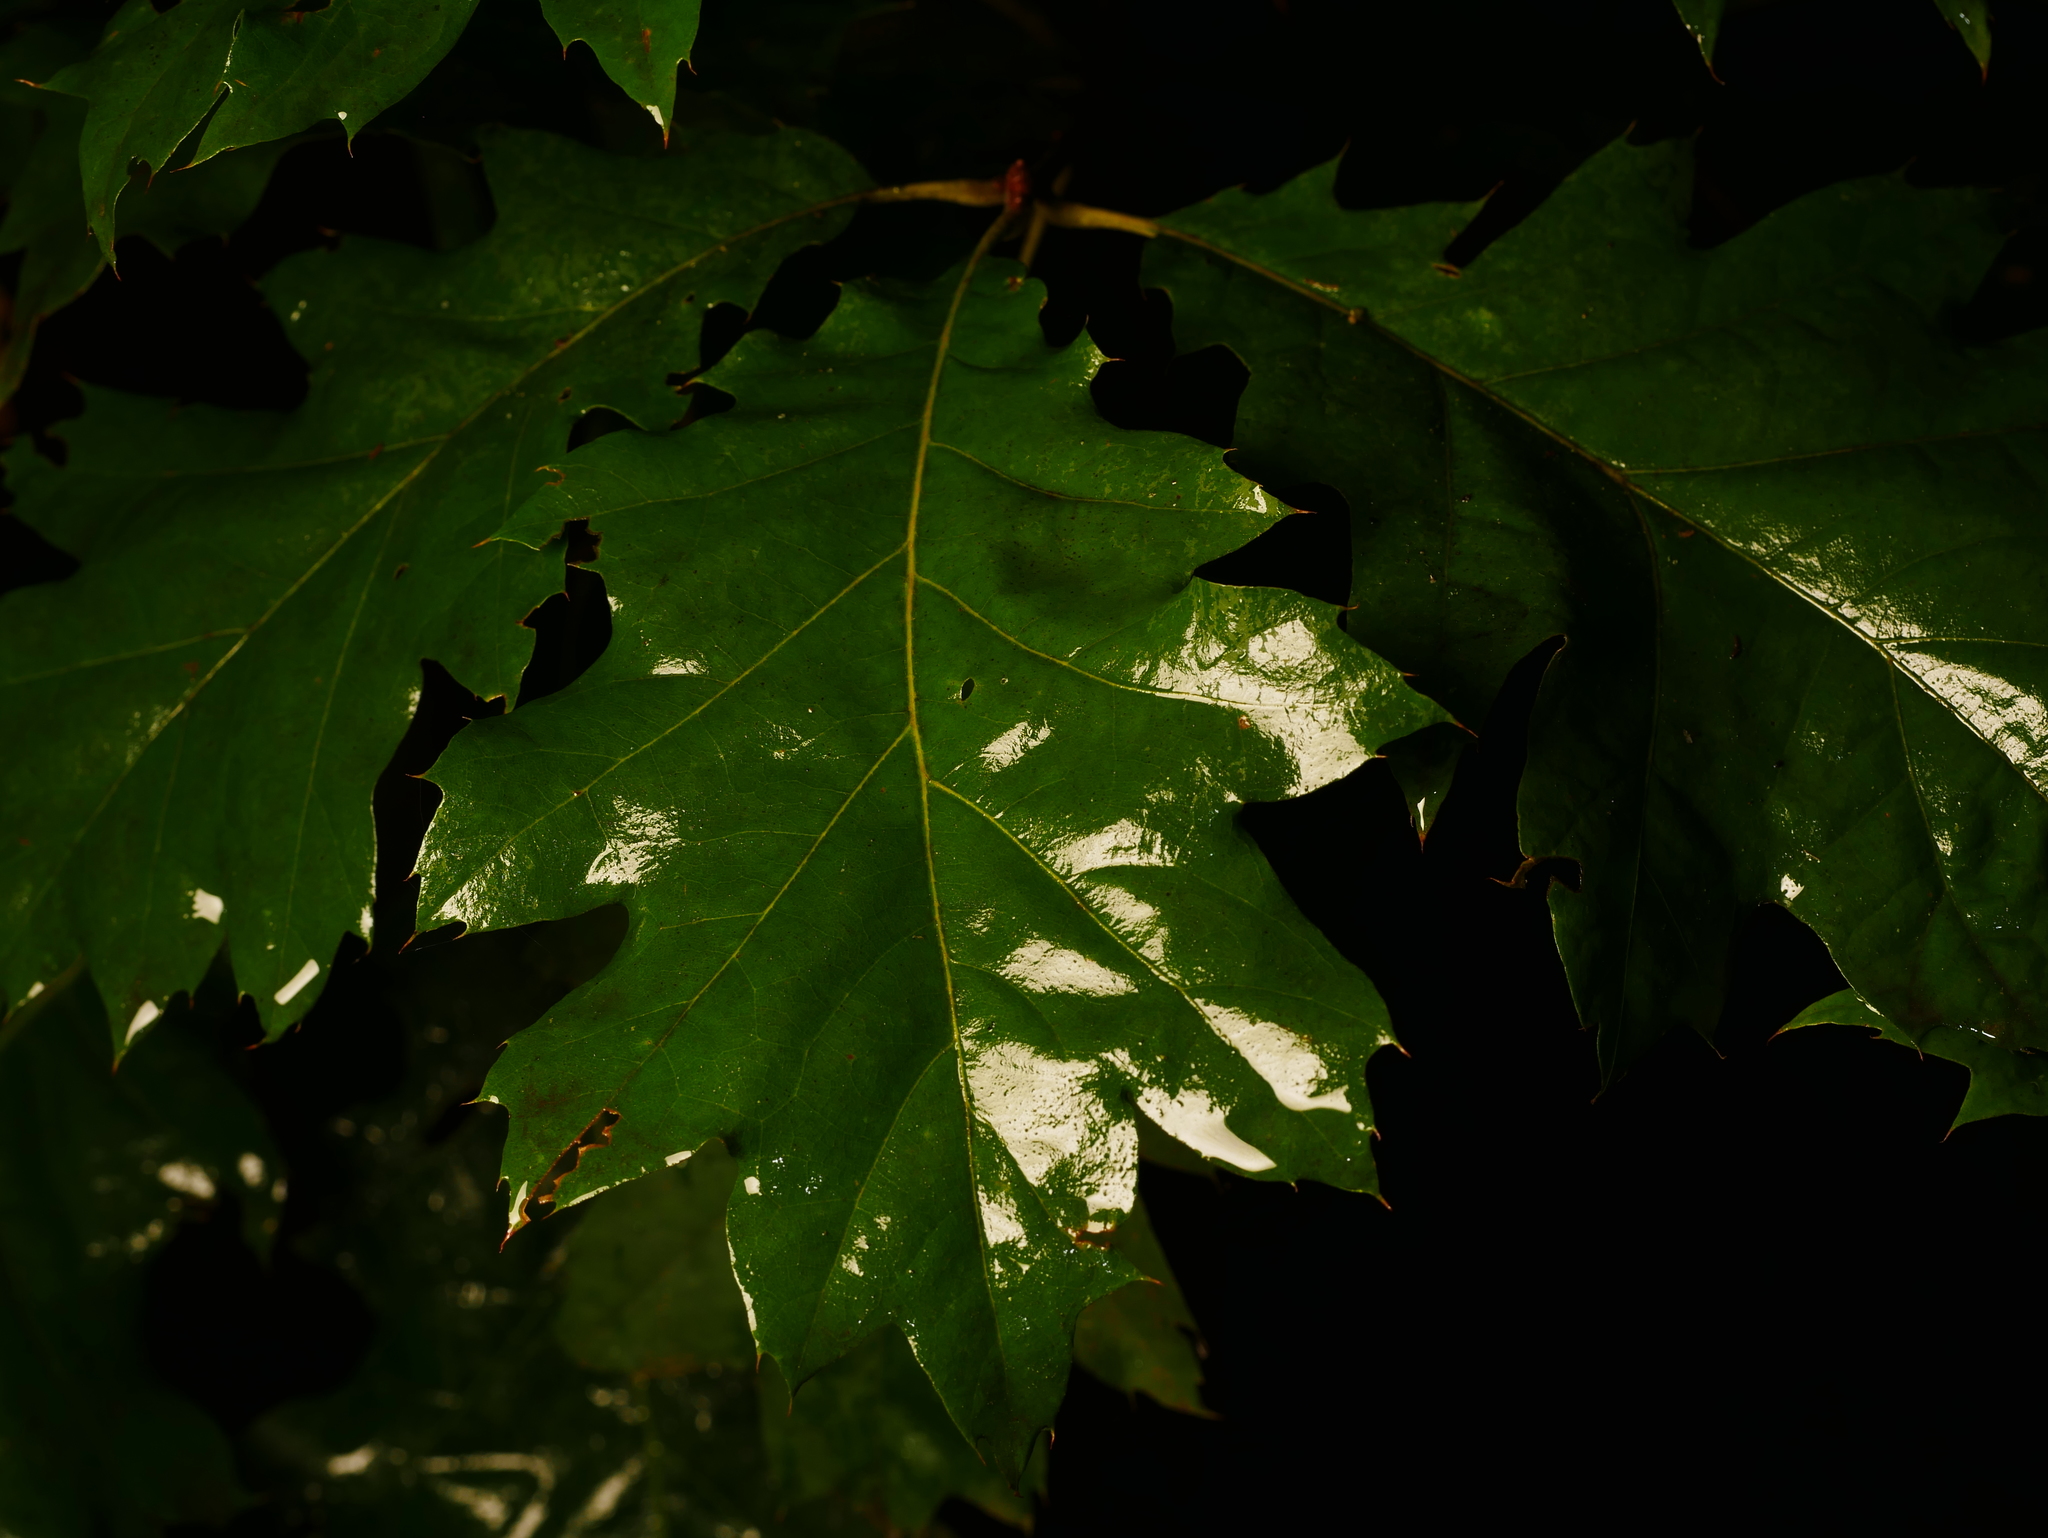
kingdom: Plantae
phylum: Tracheophyta
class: Magnoliopsida
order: Fagales
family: Fagaceae
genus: Quercus
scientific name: Quercus rubra
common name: Red oak
